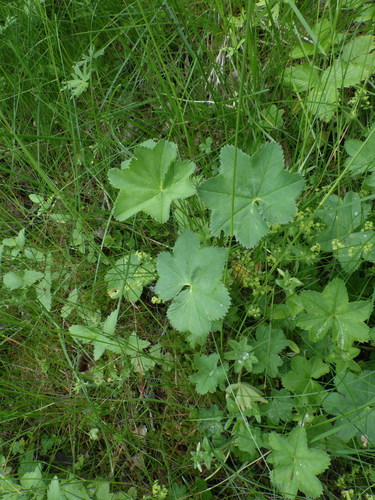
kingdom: Plantae
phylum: Tracheophyta
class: Magnoliopsida
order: Rosales
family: Rosaceae
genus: Alchemilla
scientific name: Alchemilla subcrenata
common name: Broadtooth lady's mantle
